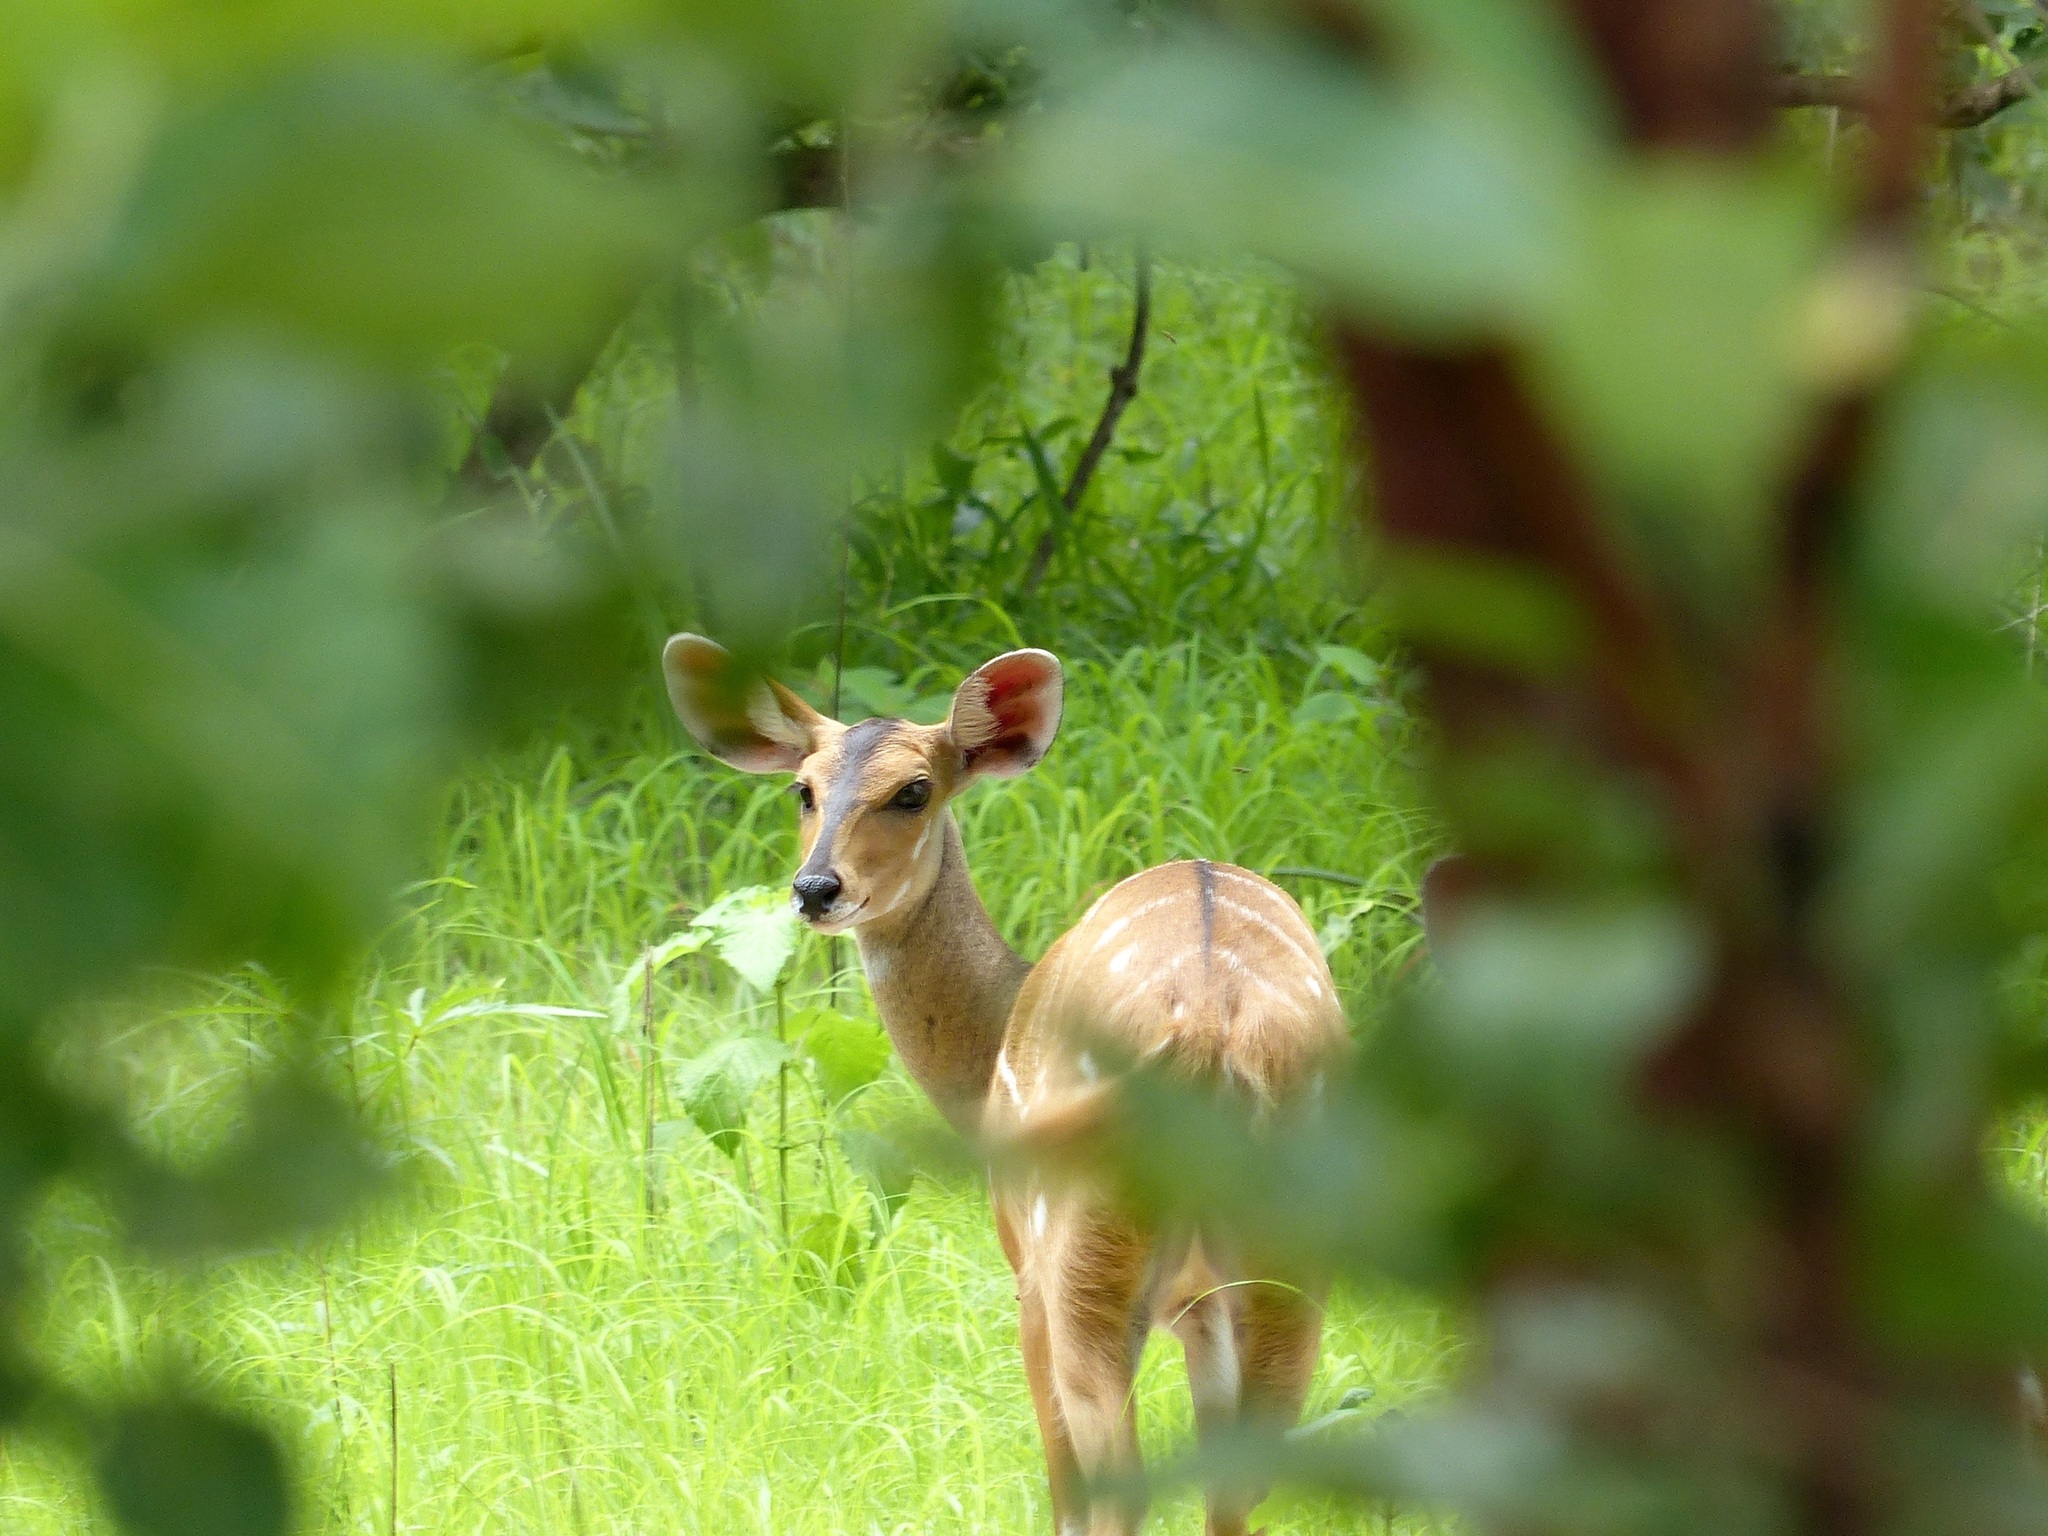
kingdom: Animalia
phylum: Chordata
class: Mammalia
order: Artiodactyla
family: Bovidae
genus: Tragelaphus
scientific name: Tragelaphus scriptus
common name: Bushbuck
